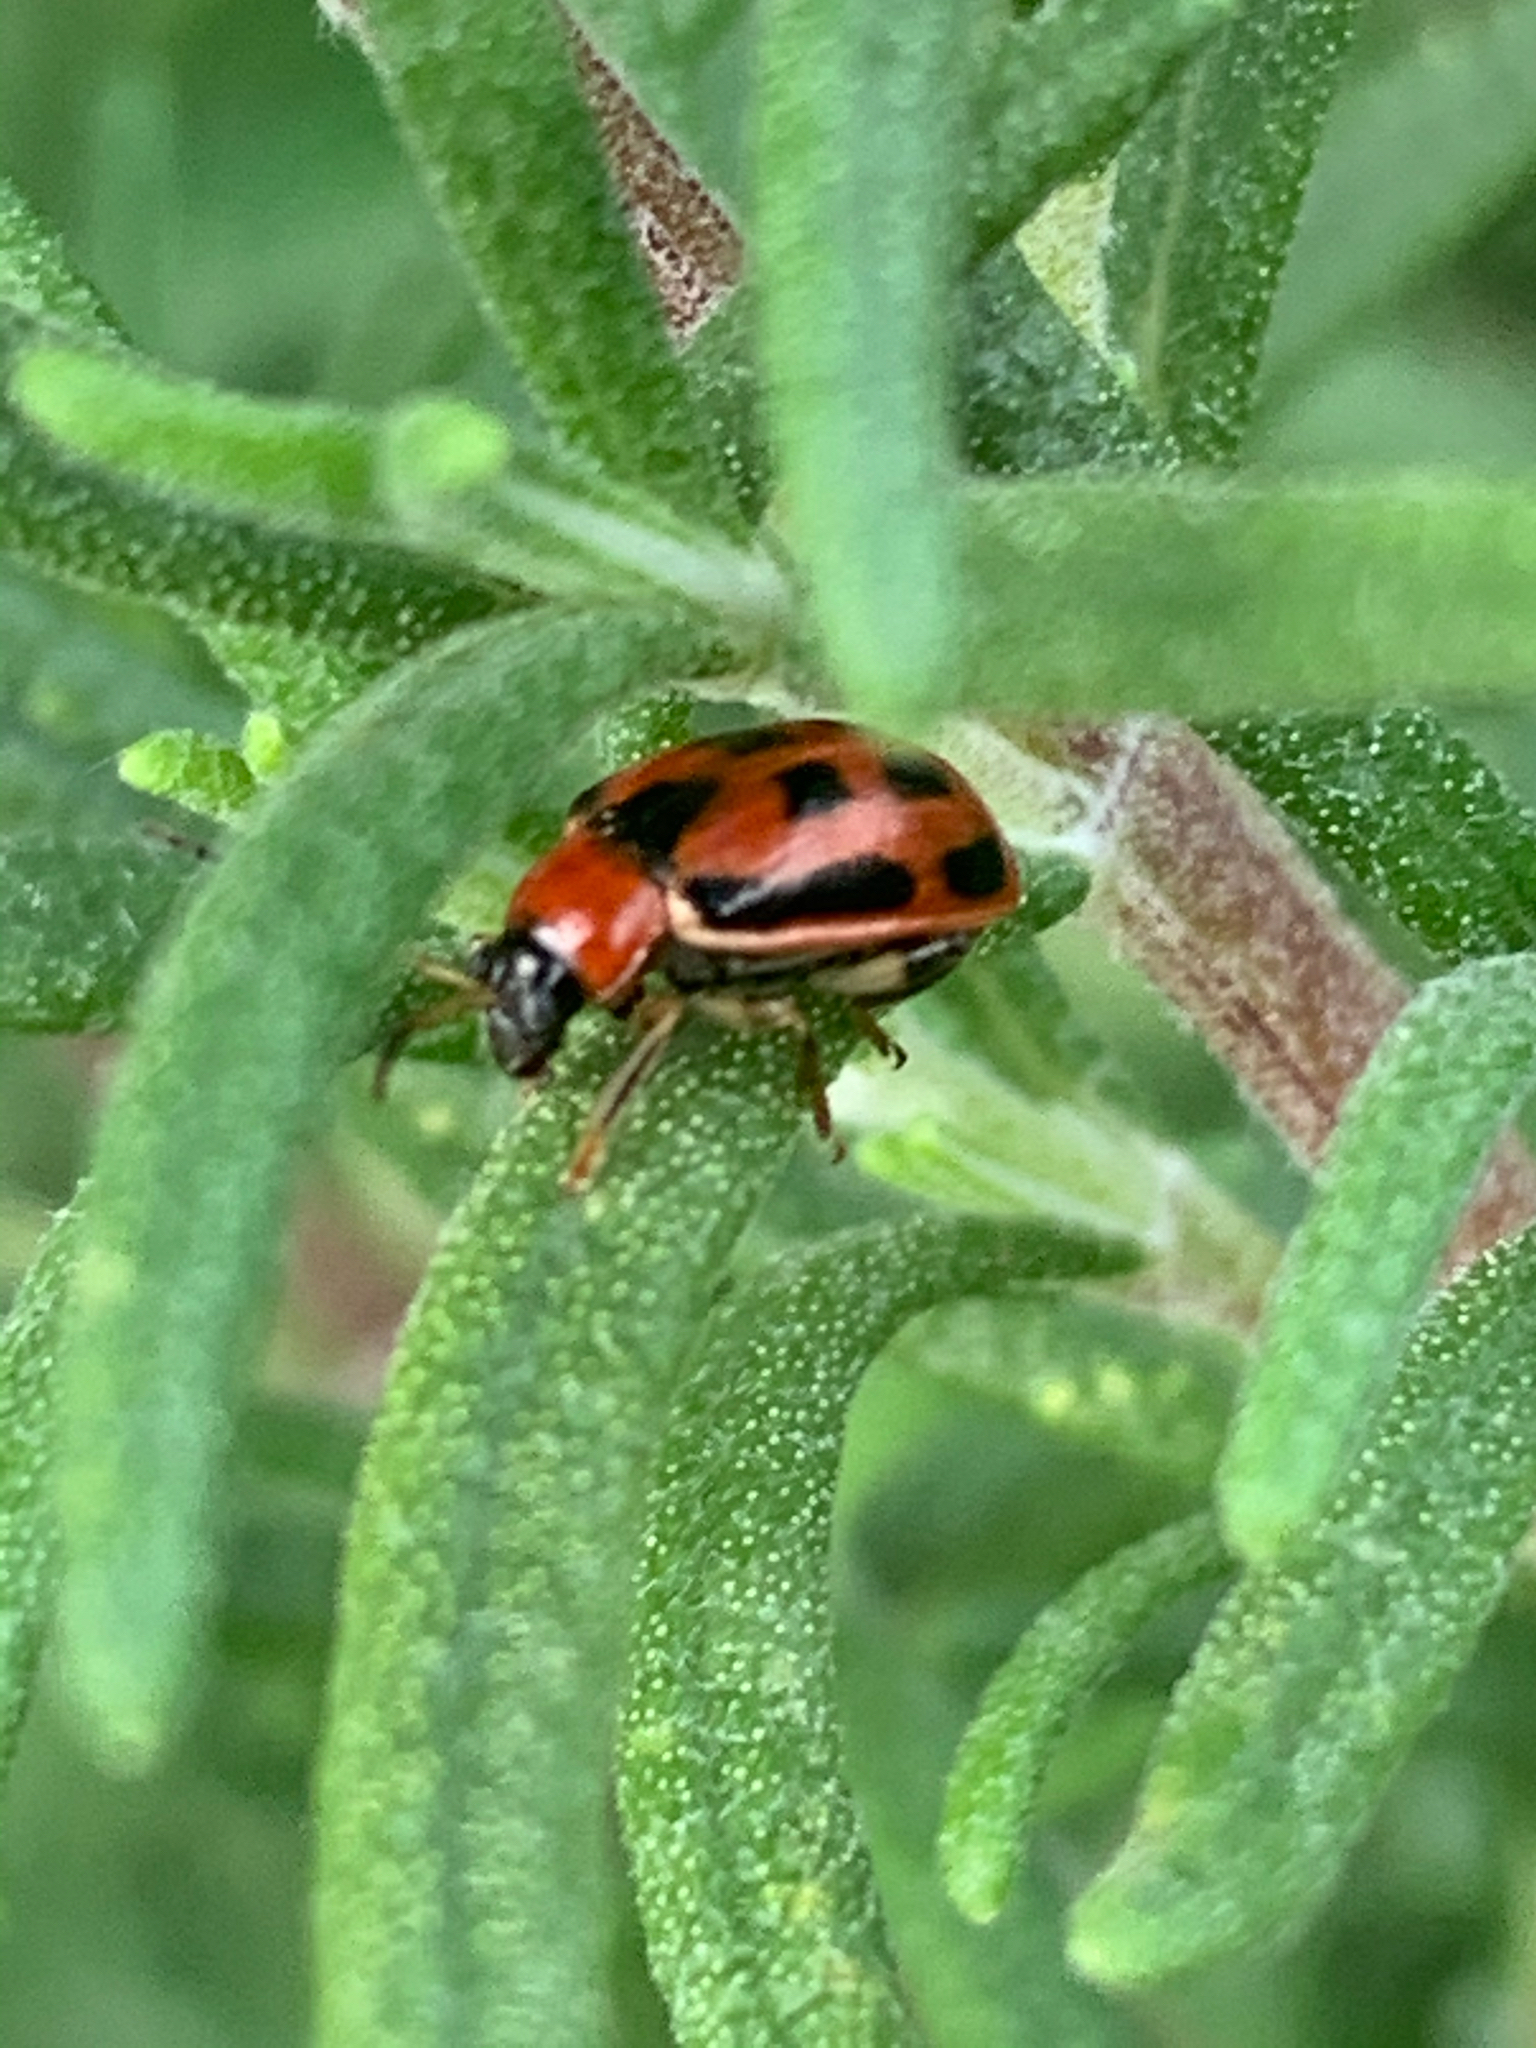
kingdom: Animalia
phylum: Arthropoda
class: Insecta
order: Coleoptera
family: Chrysomelidae
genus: Cerotoma
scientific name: Cerotoma trifurcata
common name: Bean leaf beetle
